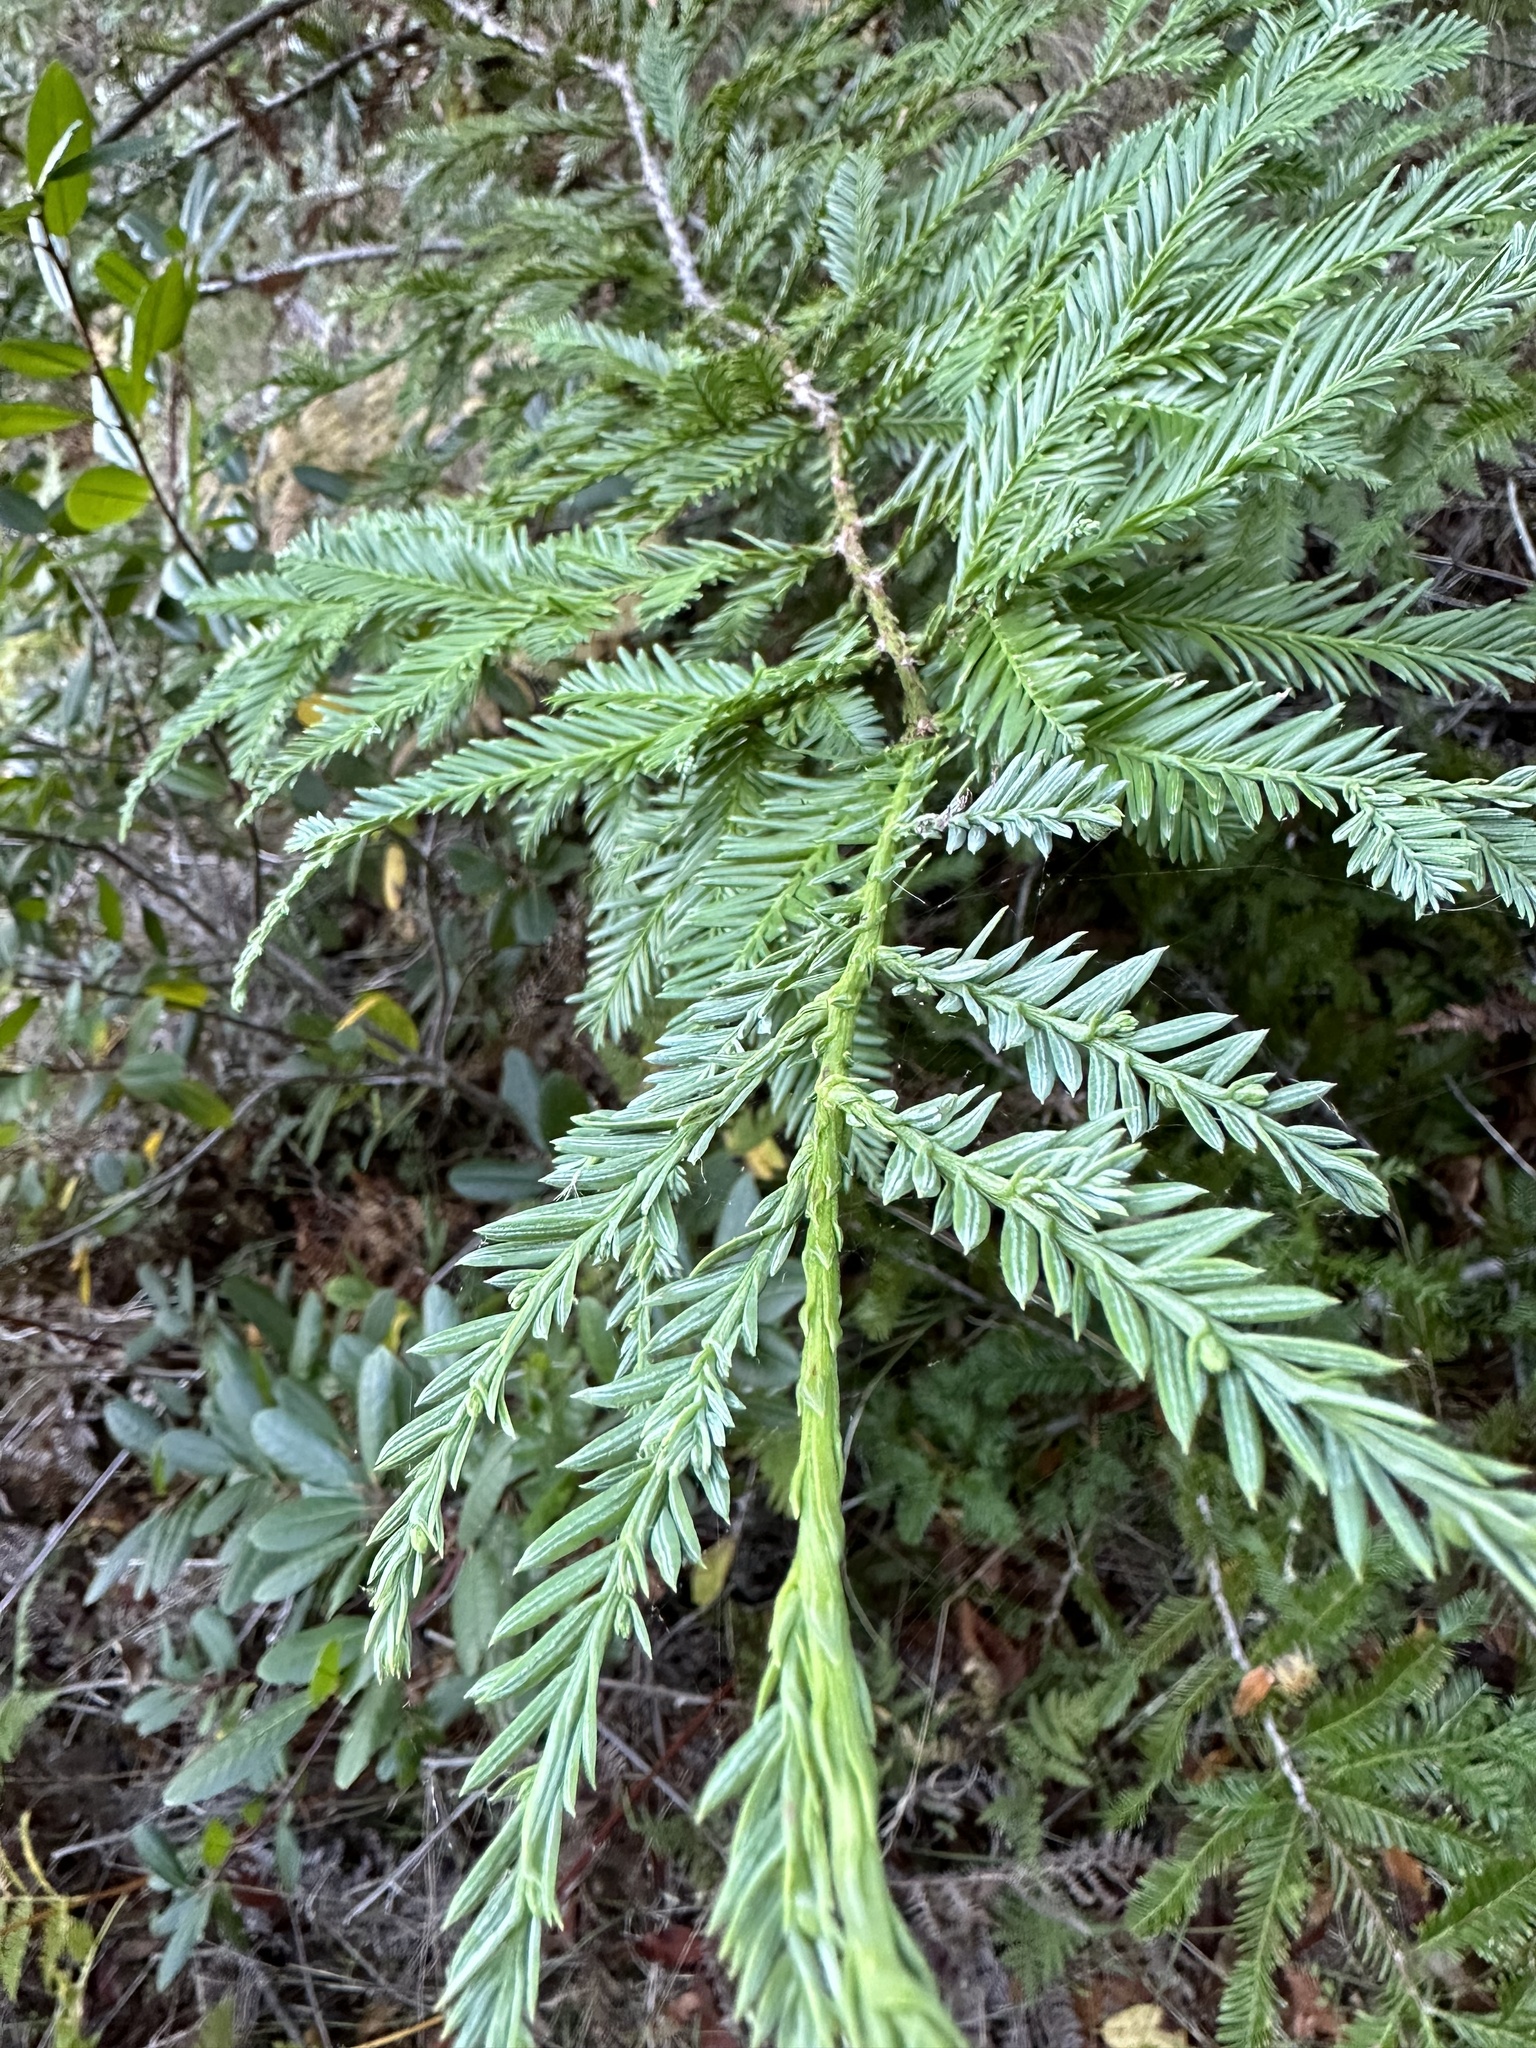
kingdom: Plantae
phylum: Tracheophyta
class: Pinopsida
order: Pinales
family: Cupressaceae
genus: Sequoia
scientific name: Sequoia sempervirens
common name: Coast redwood
